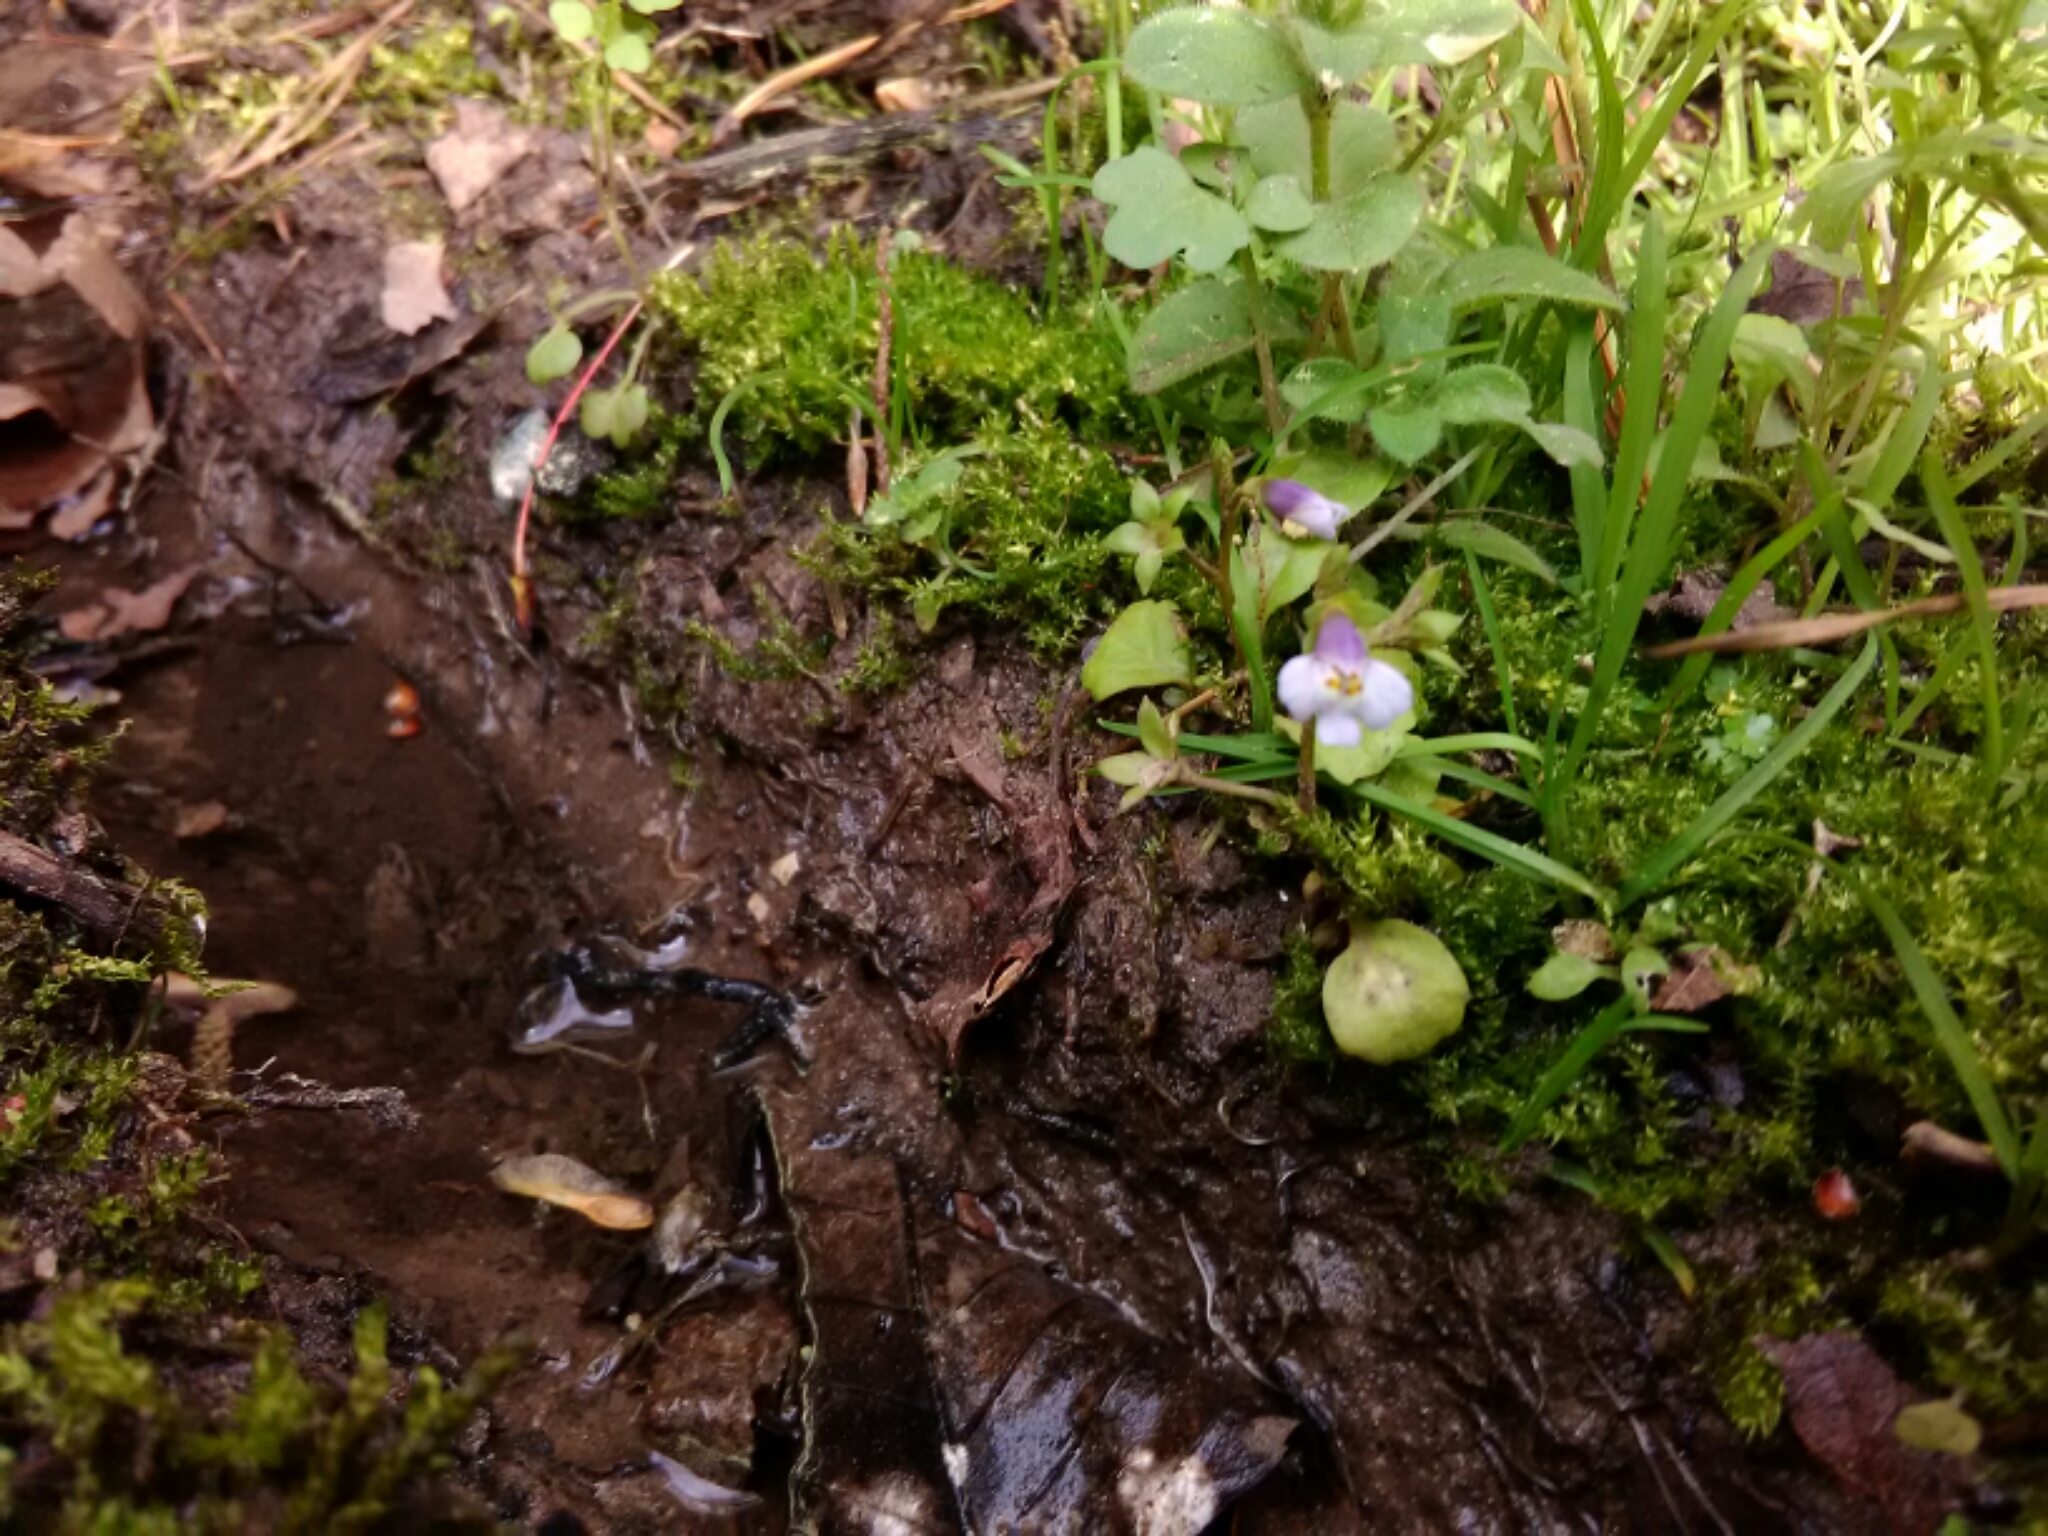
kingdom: Plantae
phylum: Tracheophyta
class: Magnoliopsida
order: Lamiales
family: Mazaceae
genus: Mazus
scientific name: Mazus pumilus
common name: Japanese mazus
